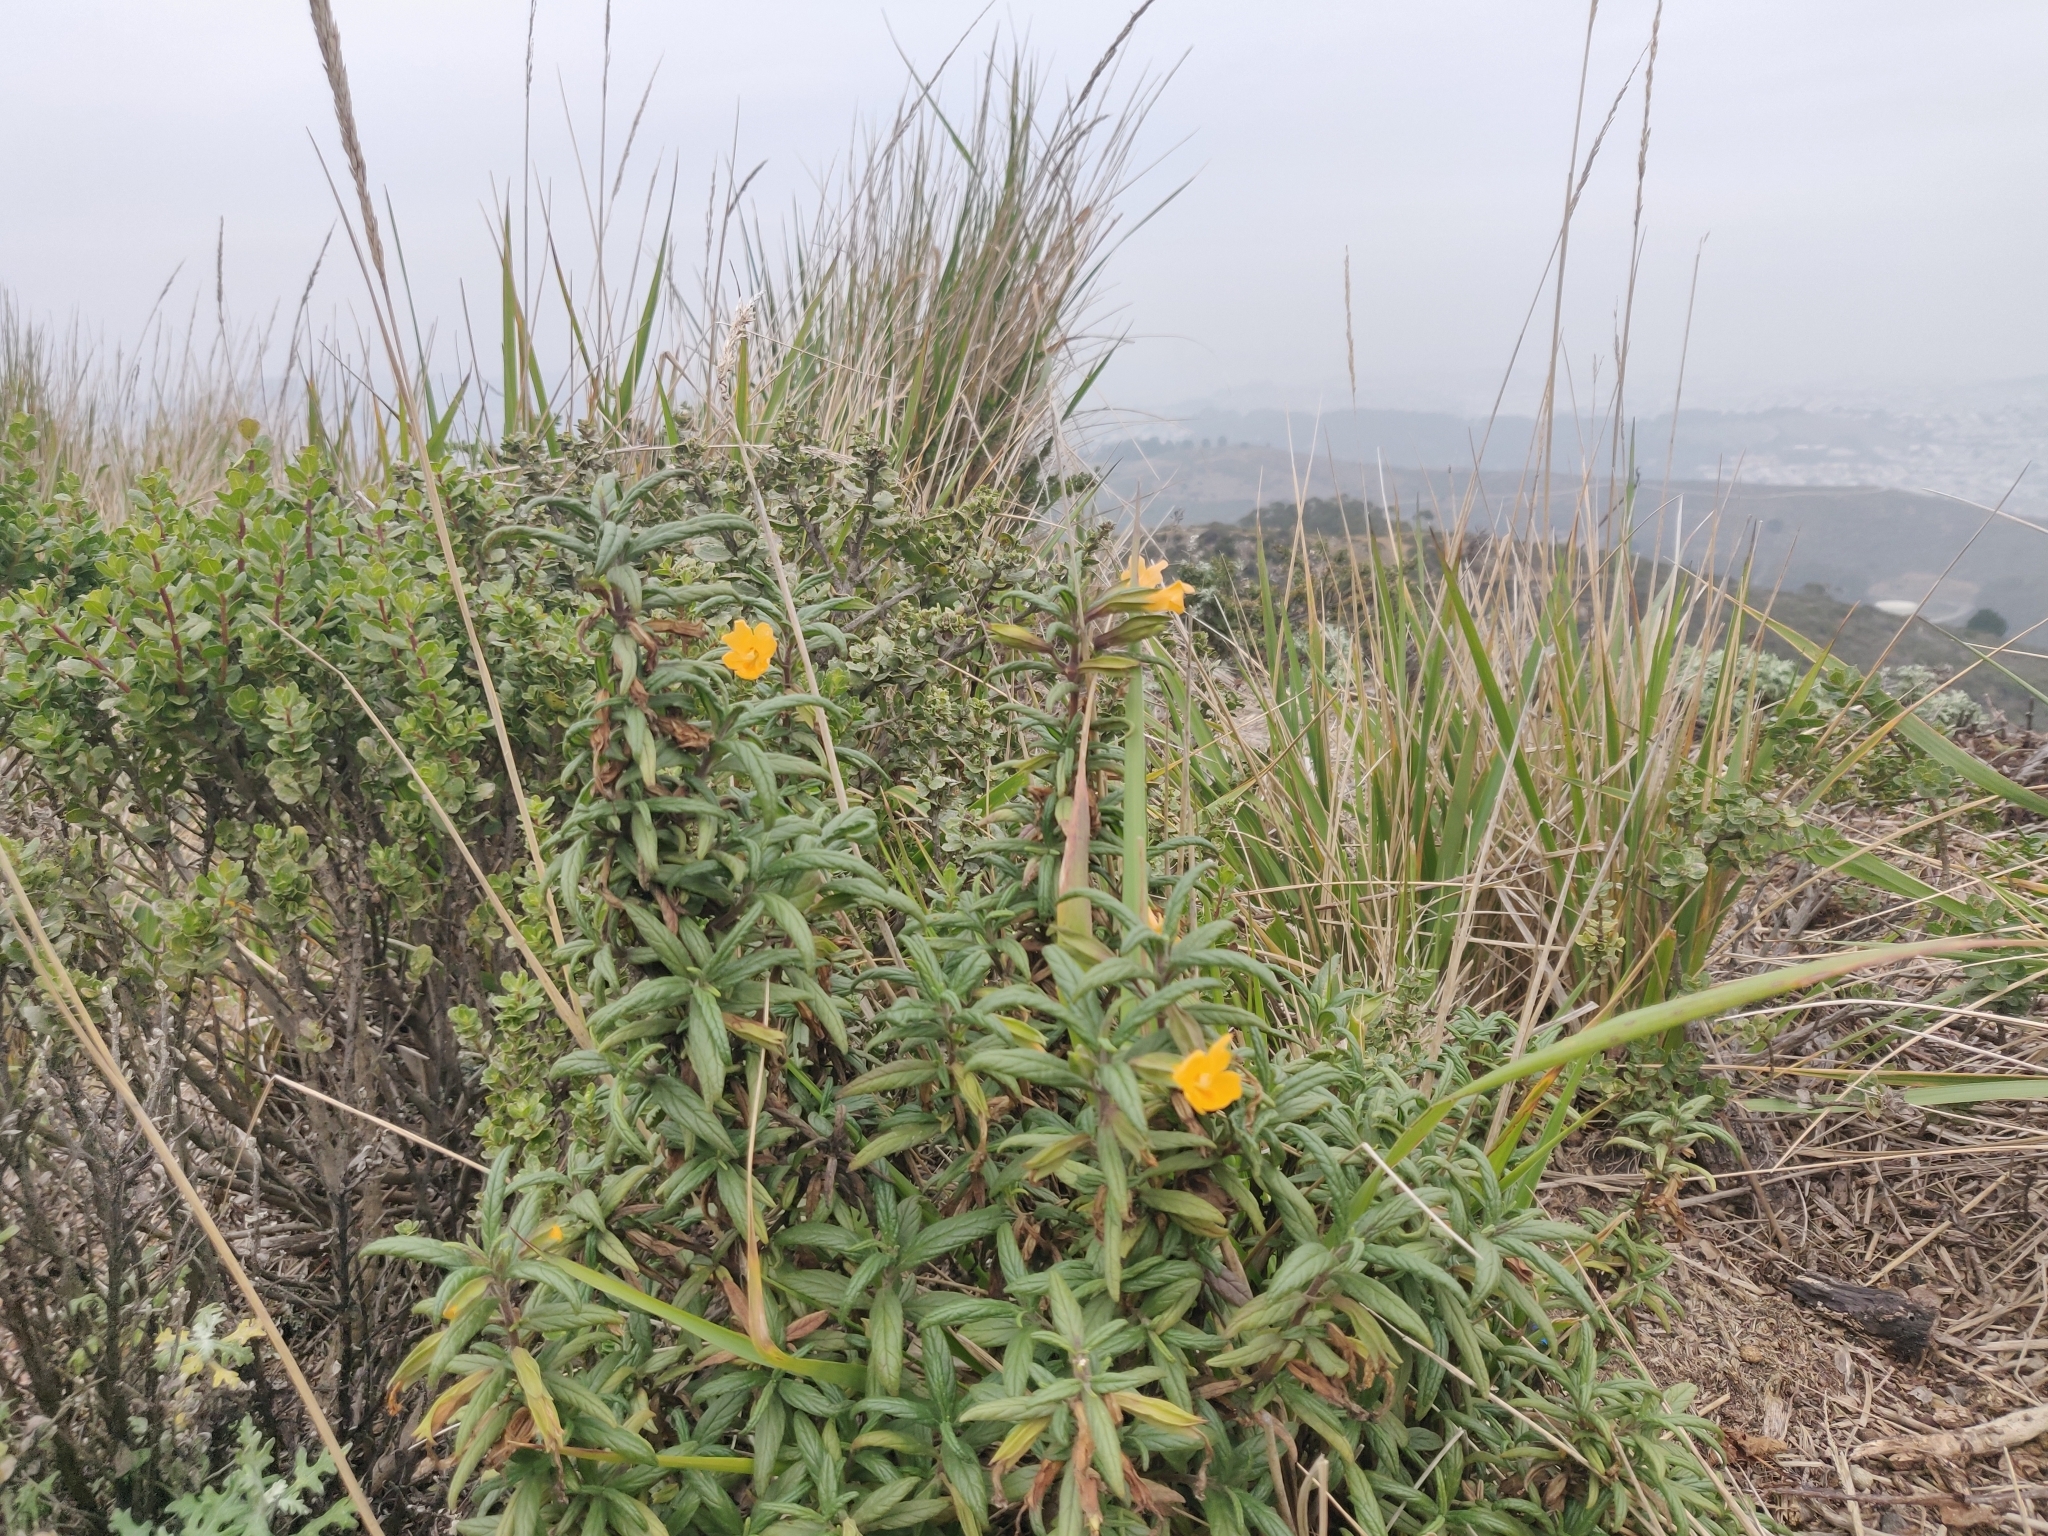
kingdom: Plantae
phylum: Tracheophyta
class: Magnoliopsida
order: Lamiales
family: Phrymaceae
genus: Diplacus
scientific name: Diplacus aurantiacus
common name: Bush monkey-flower
